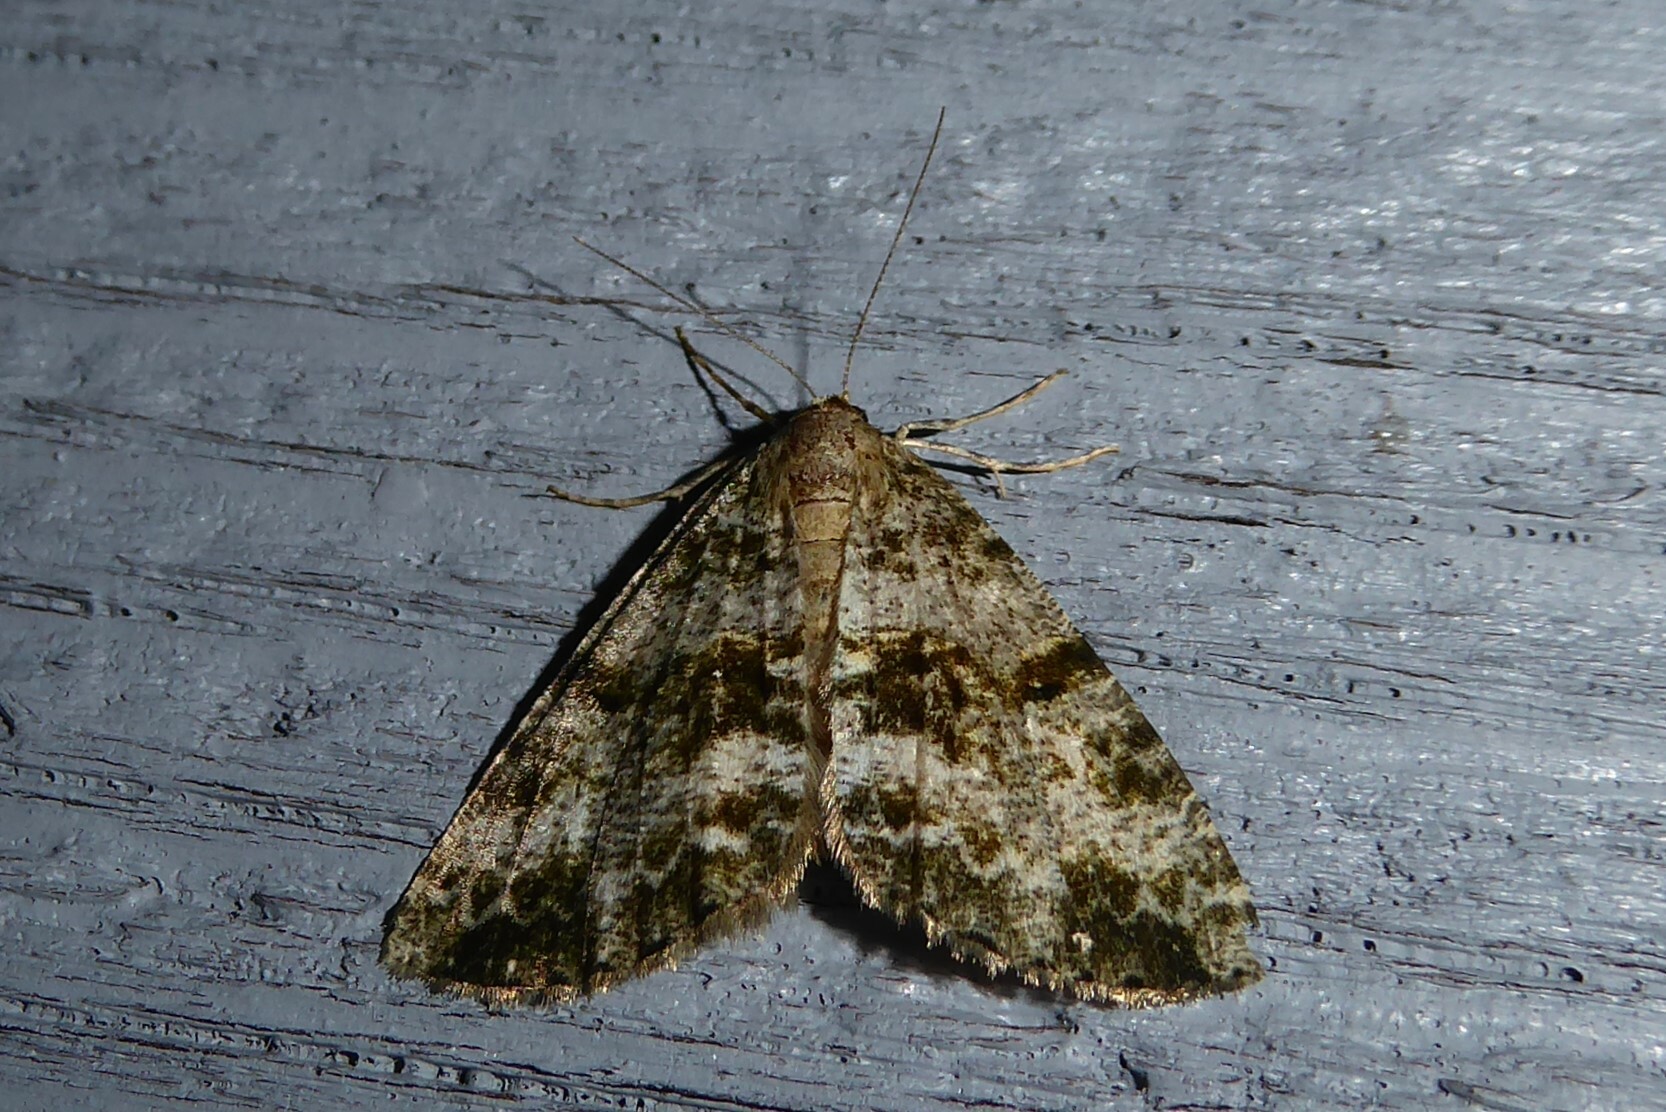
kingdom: Animalia
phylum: Arthropoda
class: Insecta
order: Lepidoptera
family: Geometridae
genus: Pseudocoremia
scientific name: Pseudocoremia lactiflua
